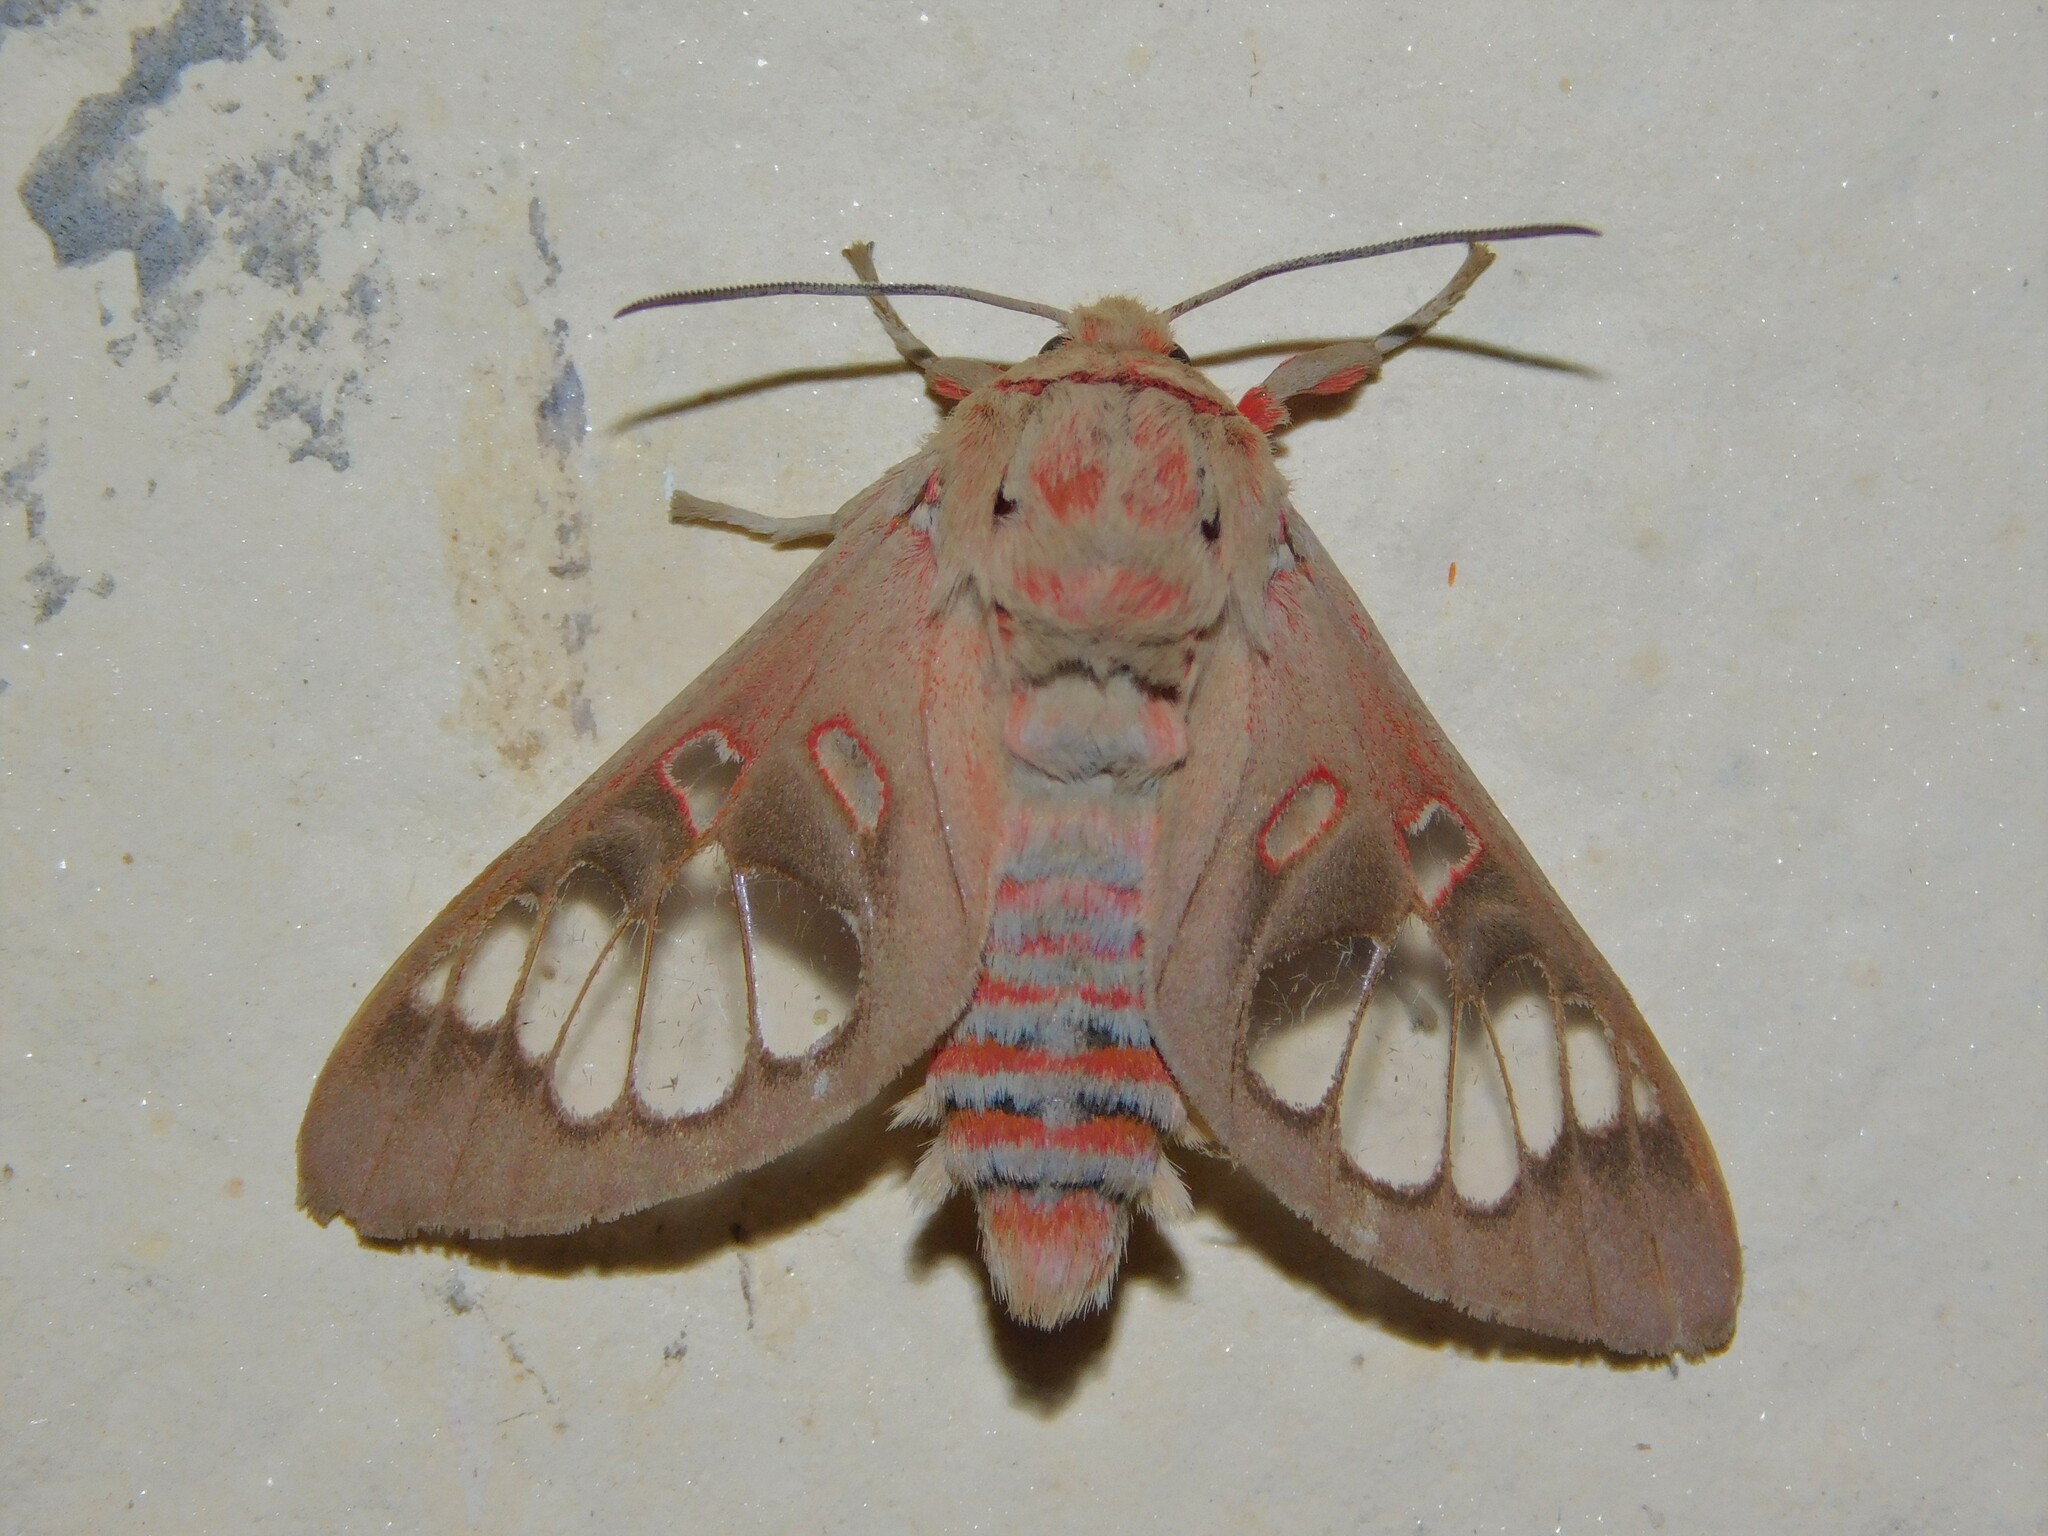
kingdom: Animalia
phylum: Arthropoda
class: Insecta
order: Lepidoptera
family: Erebidae
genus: Balacra
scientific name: Balacra preussi
